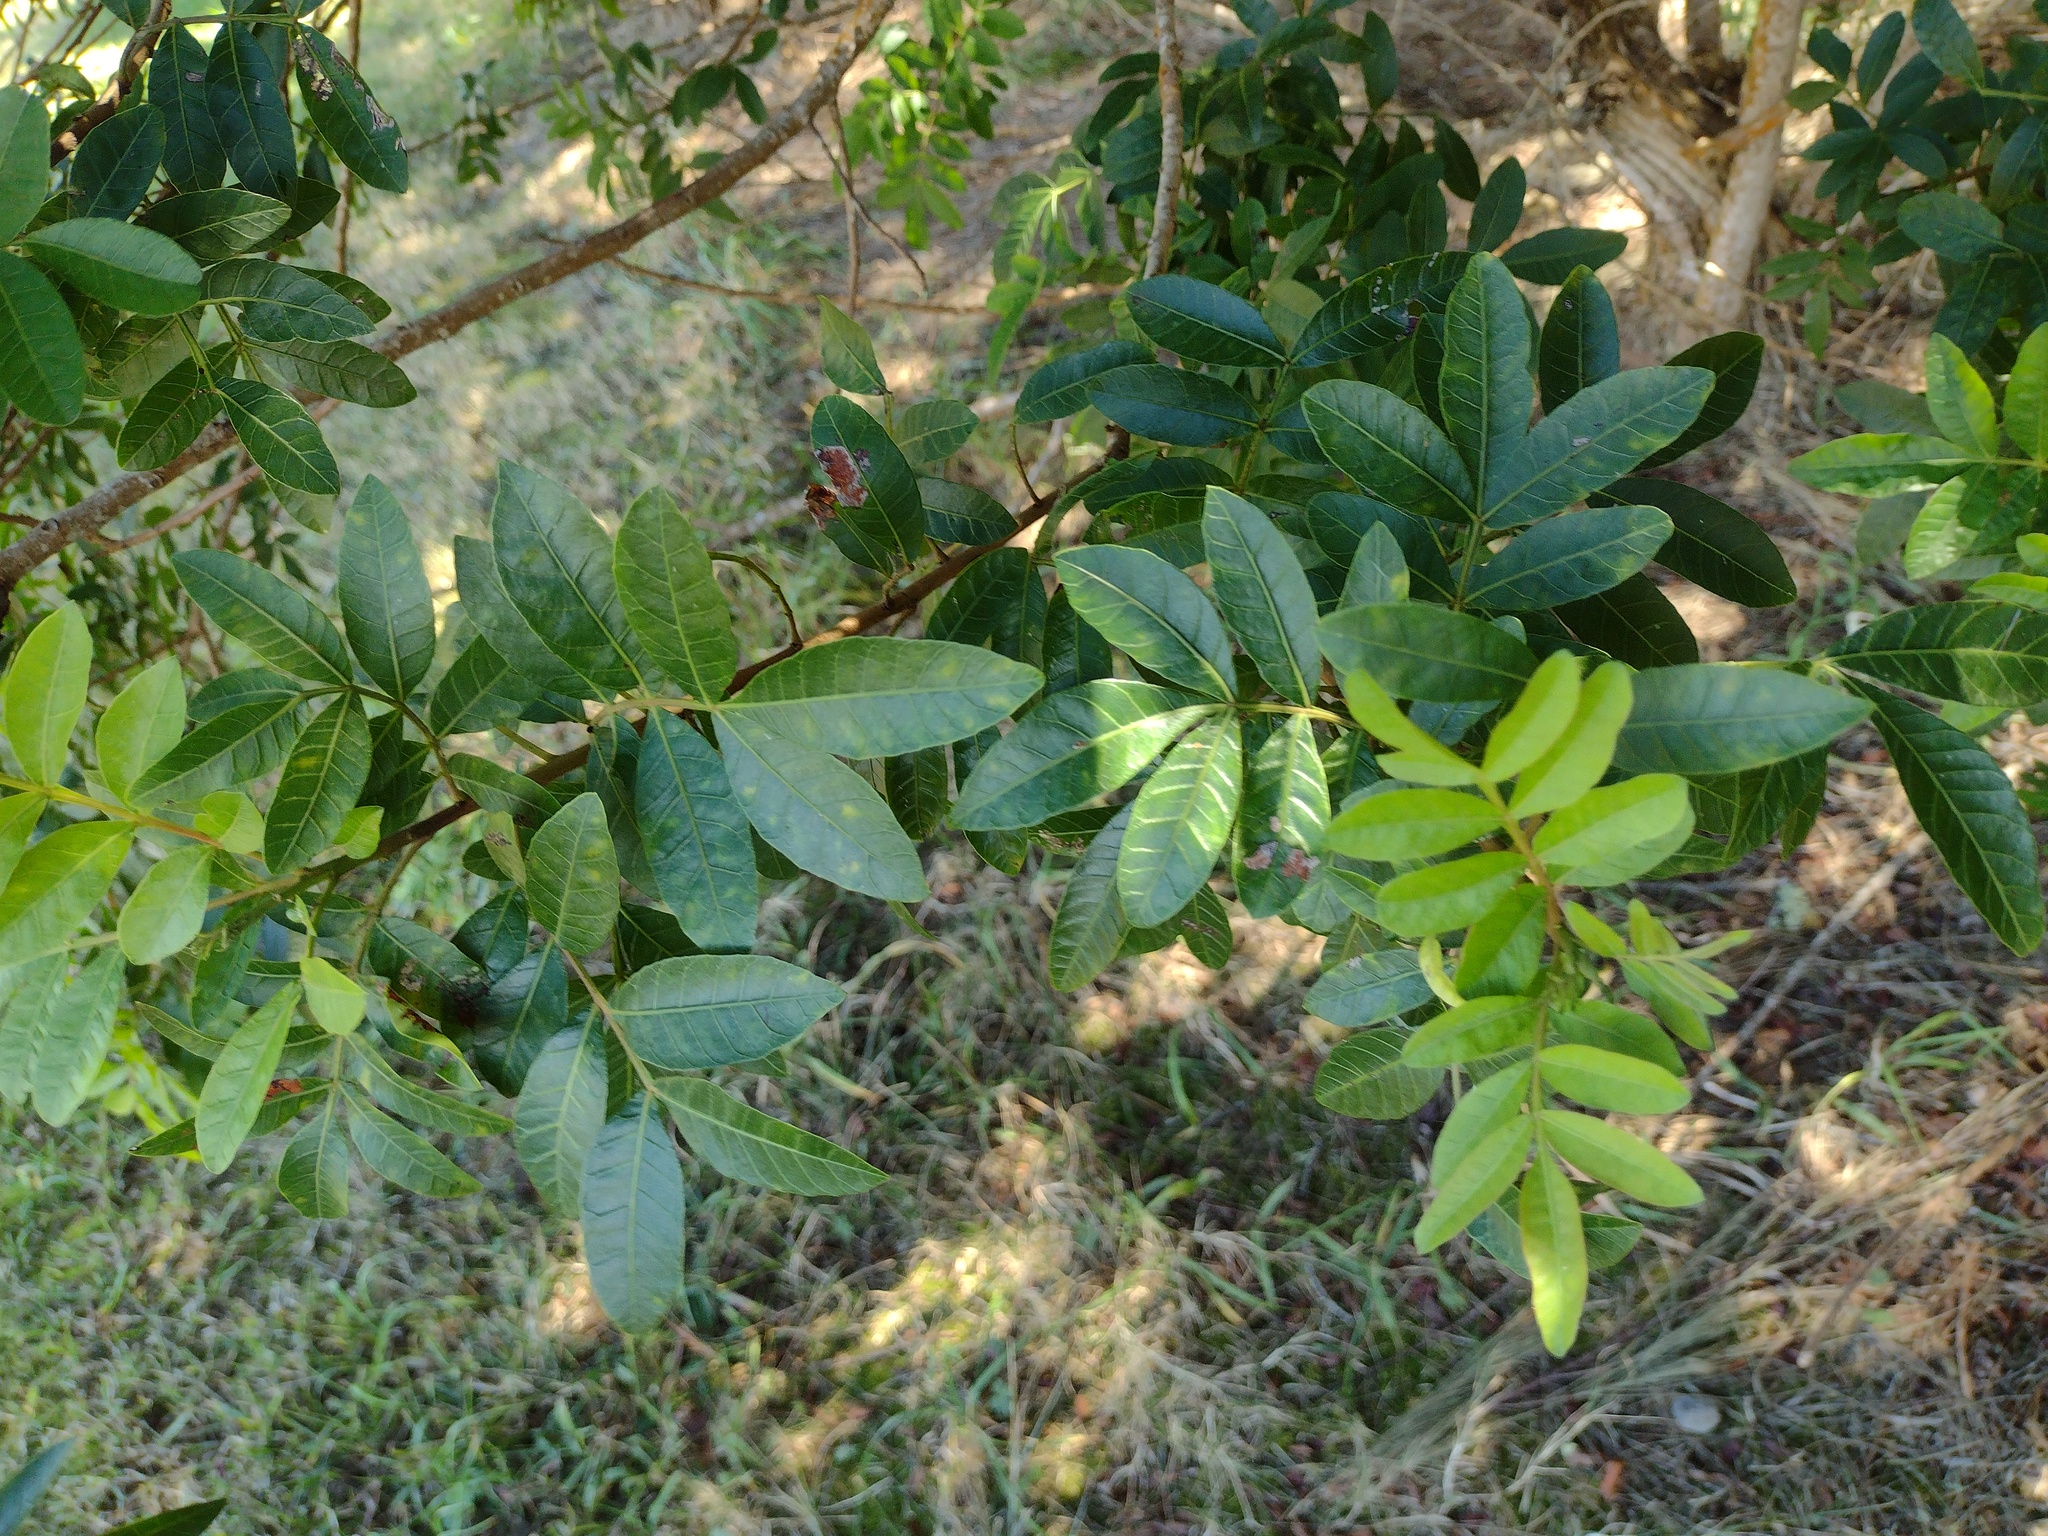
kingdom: Plantae
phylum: Tracheophyta
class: Magnoliopsida
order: Sapindales
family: Anacardiaceae
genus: Schinus
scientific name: Schinus terebinthifolia
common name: Brazilian peppertree
